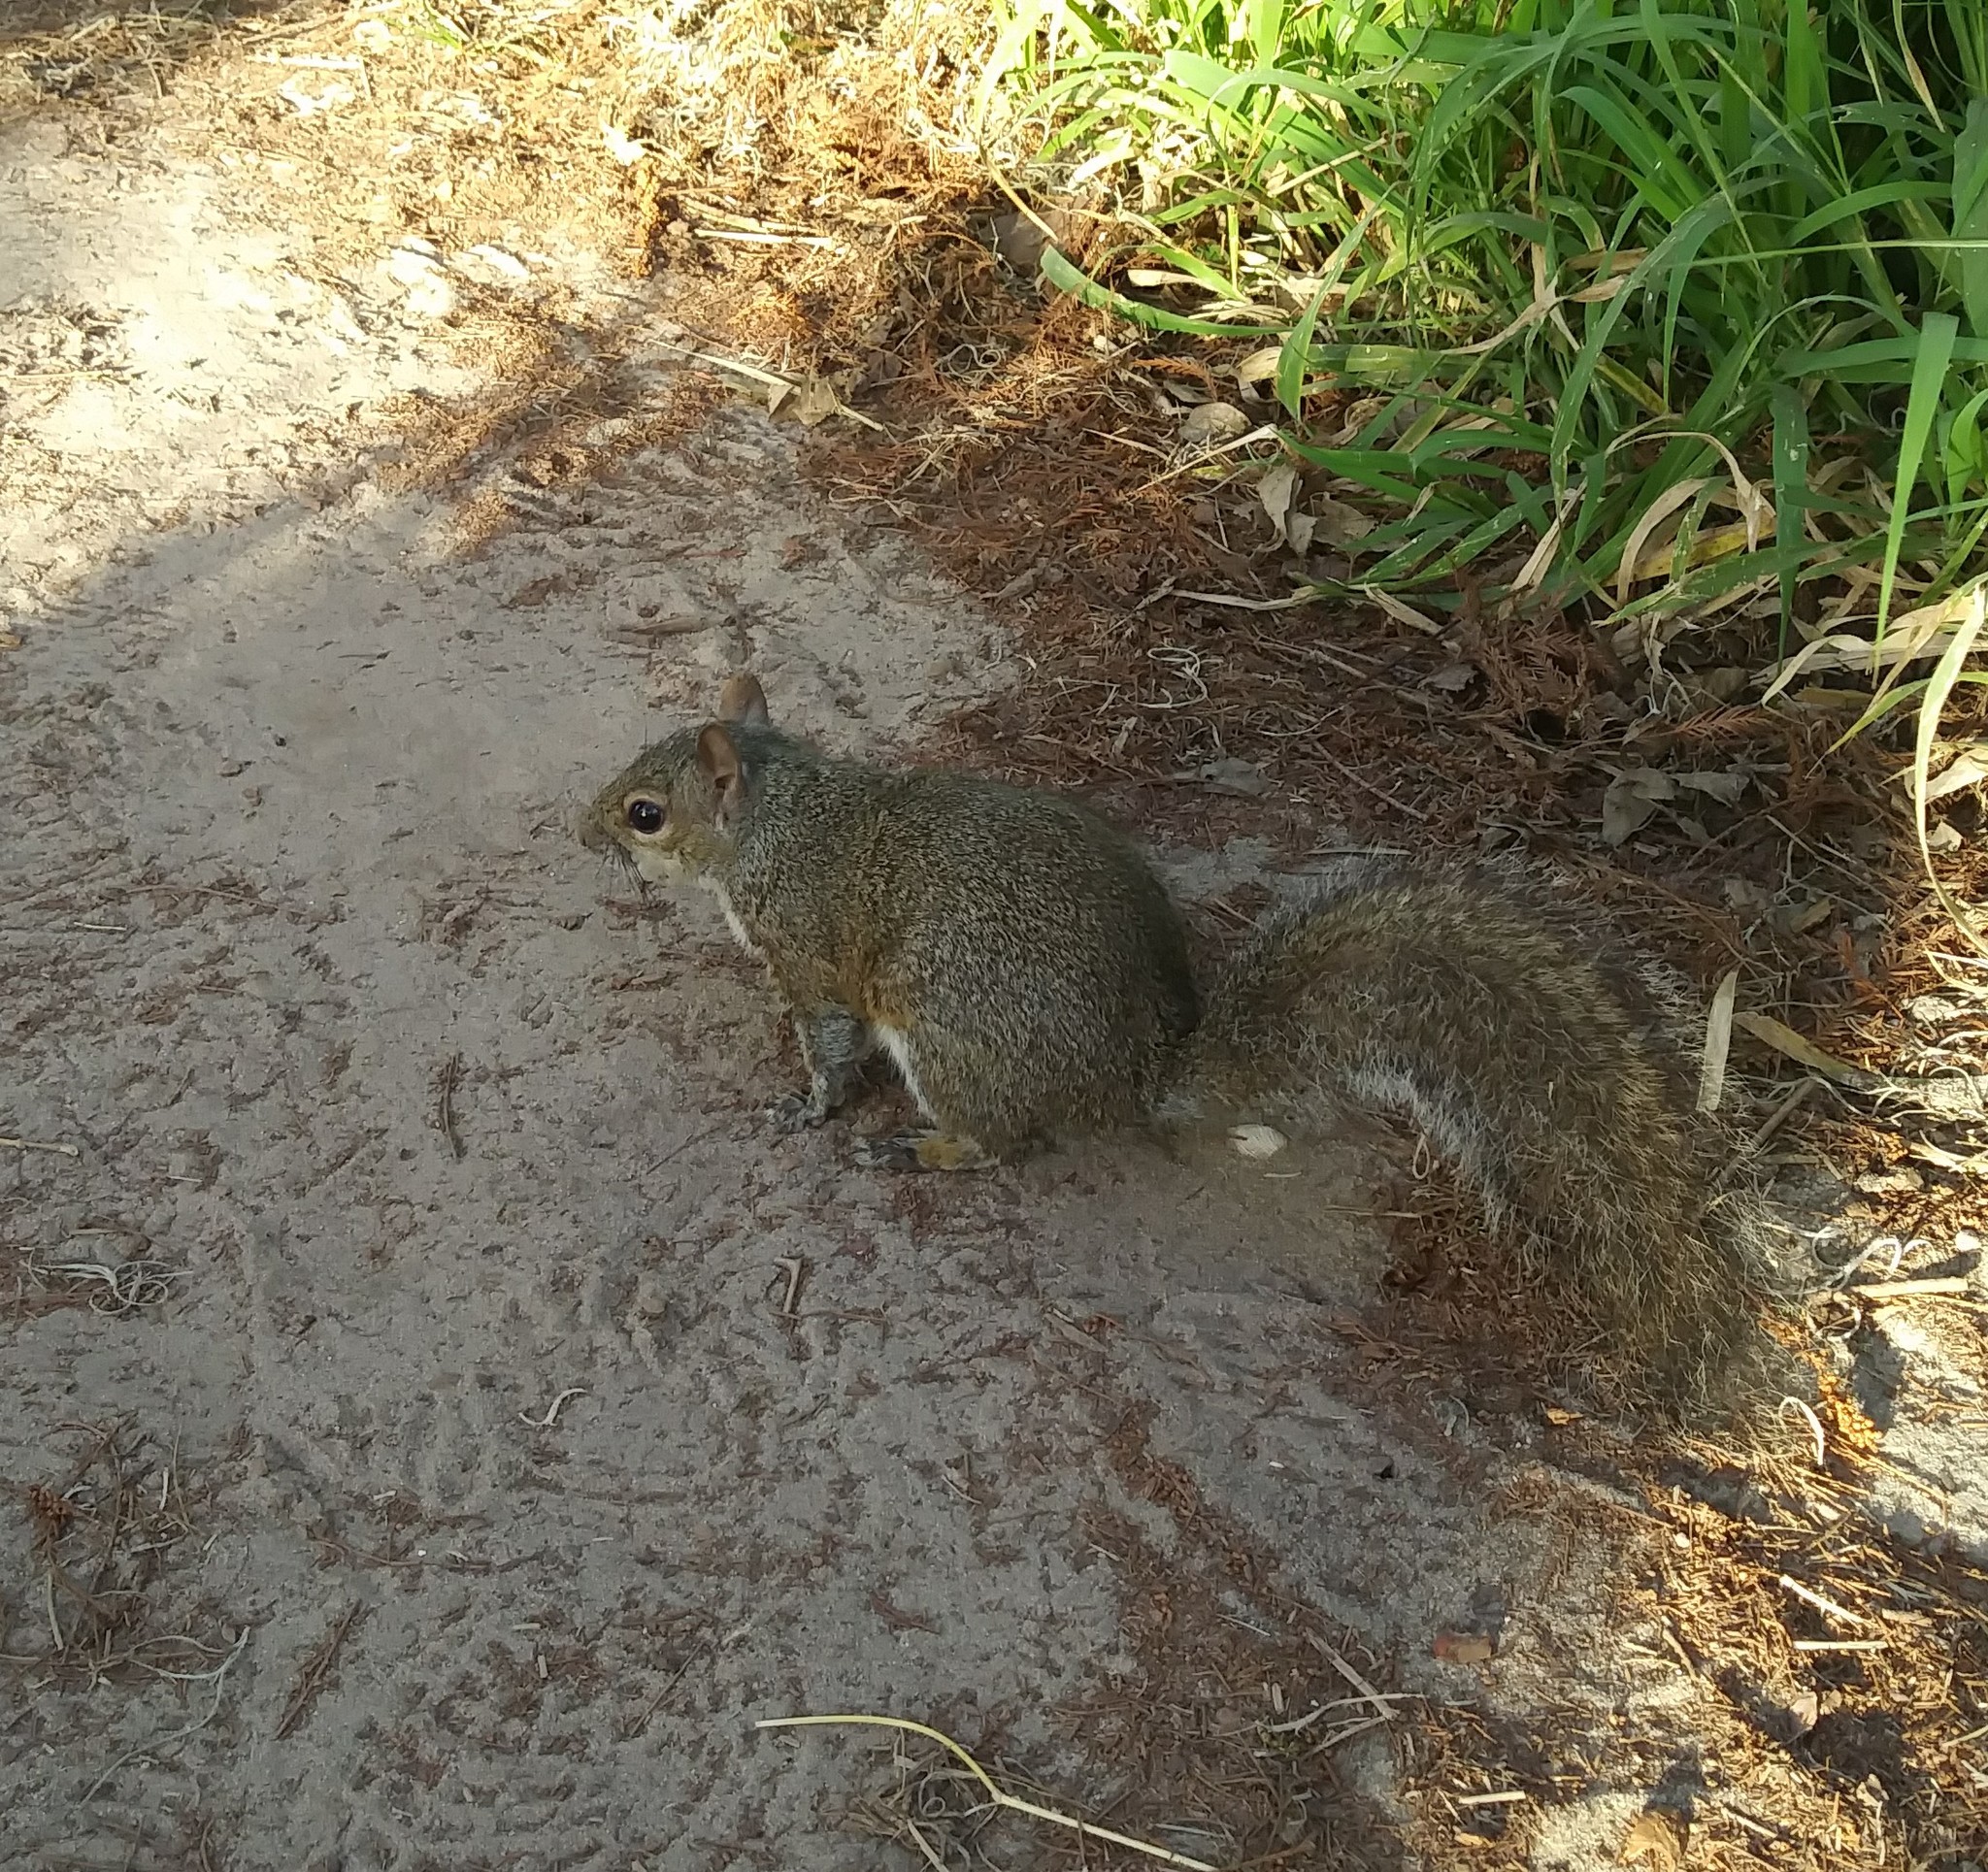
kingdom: Animalia
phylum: Chordata
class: Mammalia
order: Rodentia
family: Sciuridae
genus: Sciurus
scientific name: Sciurus carolinensis
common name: Eastern gray squirrel
